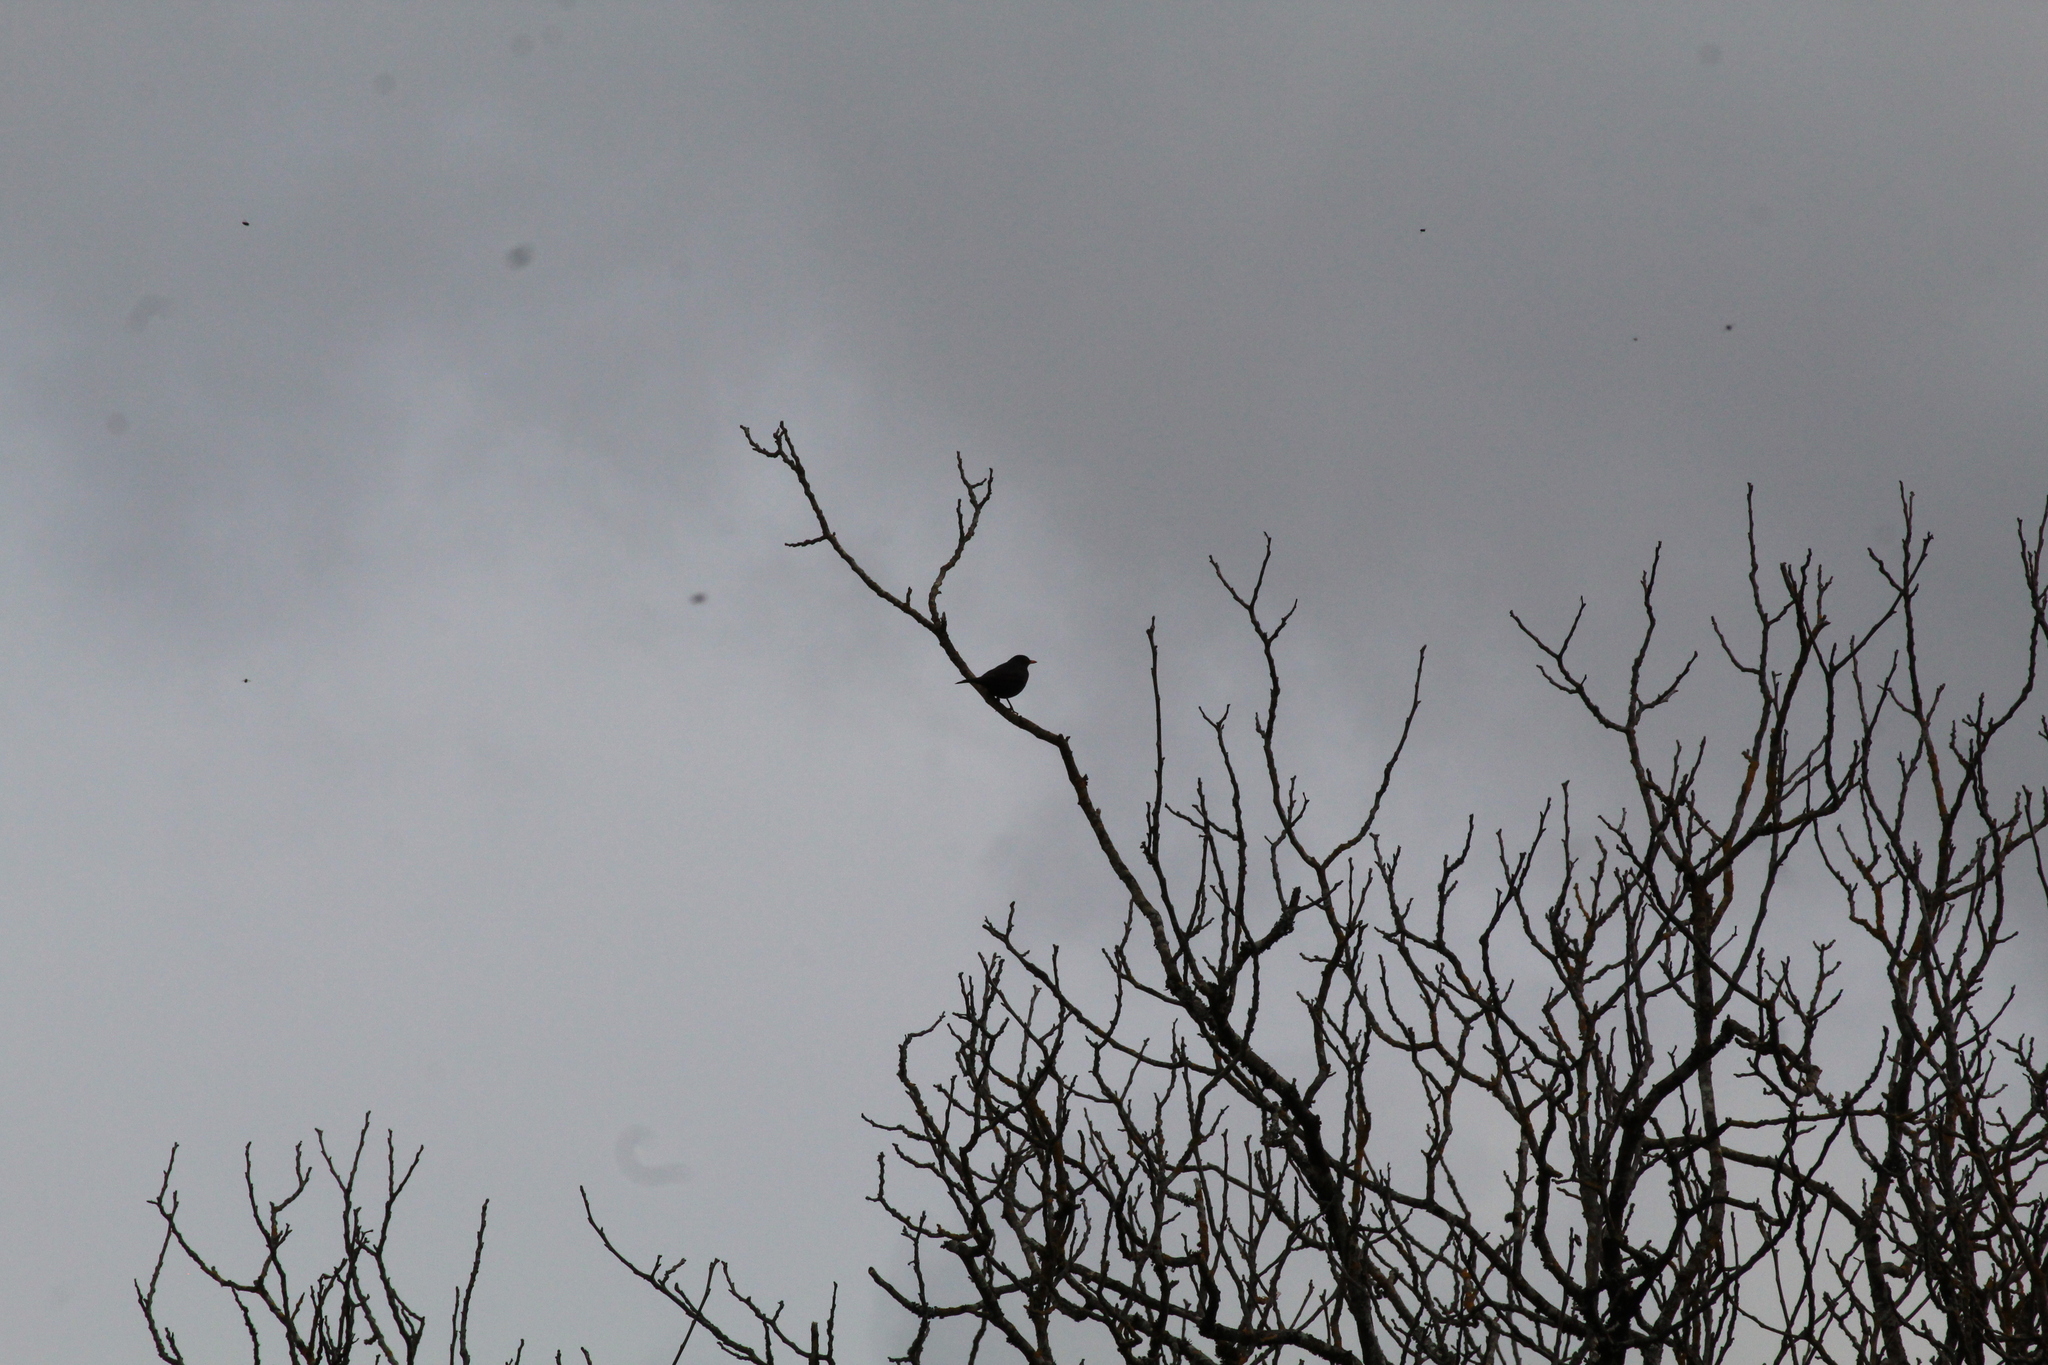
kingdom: Animalia
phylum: Chordata
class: Aves
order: Passeriformes
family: Turdidae
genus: Turdus
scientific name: Turdus merula
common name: Common blackbird
